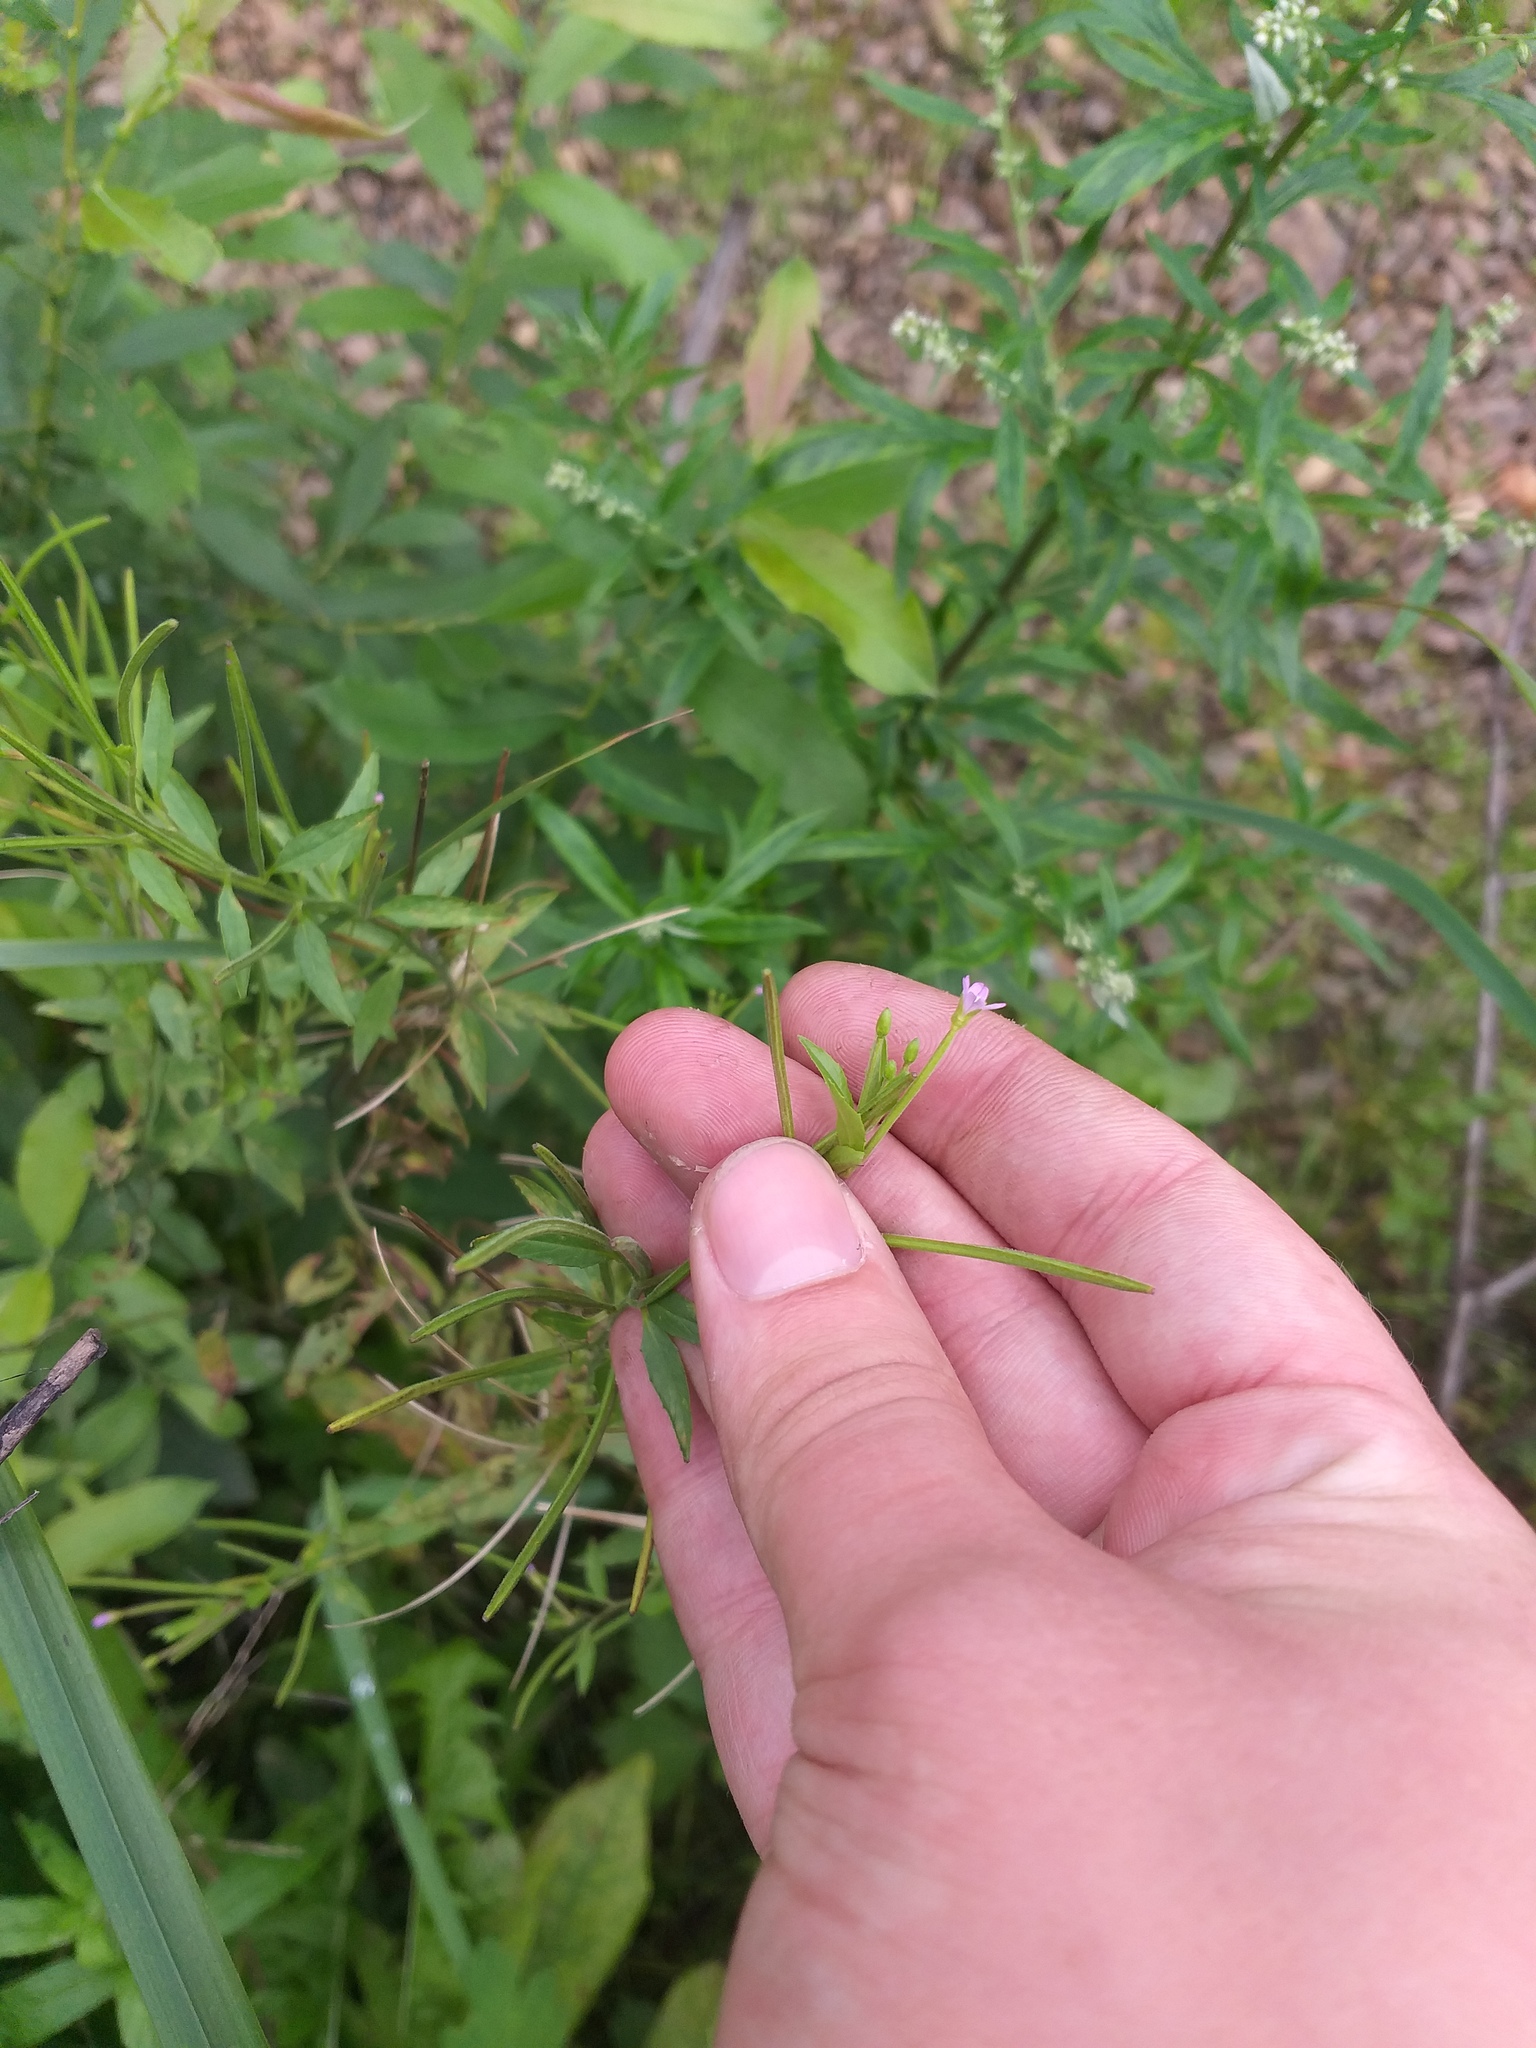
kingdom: Plantae
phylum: Tracheophyta
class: Magnoliopsida
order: Myrtales
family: Onagraceae
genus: Epilobium
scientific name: Epilobium ciliatum
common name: American willowherb
